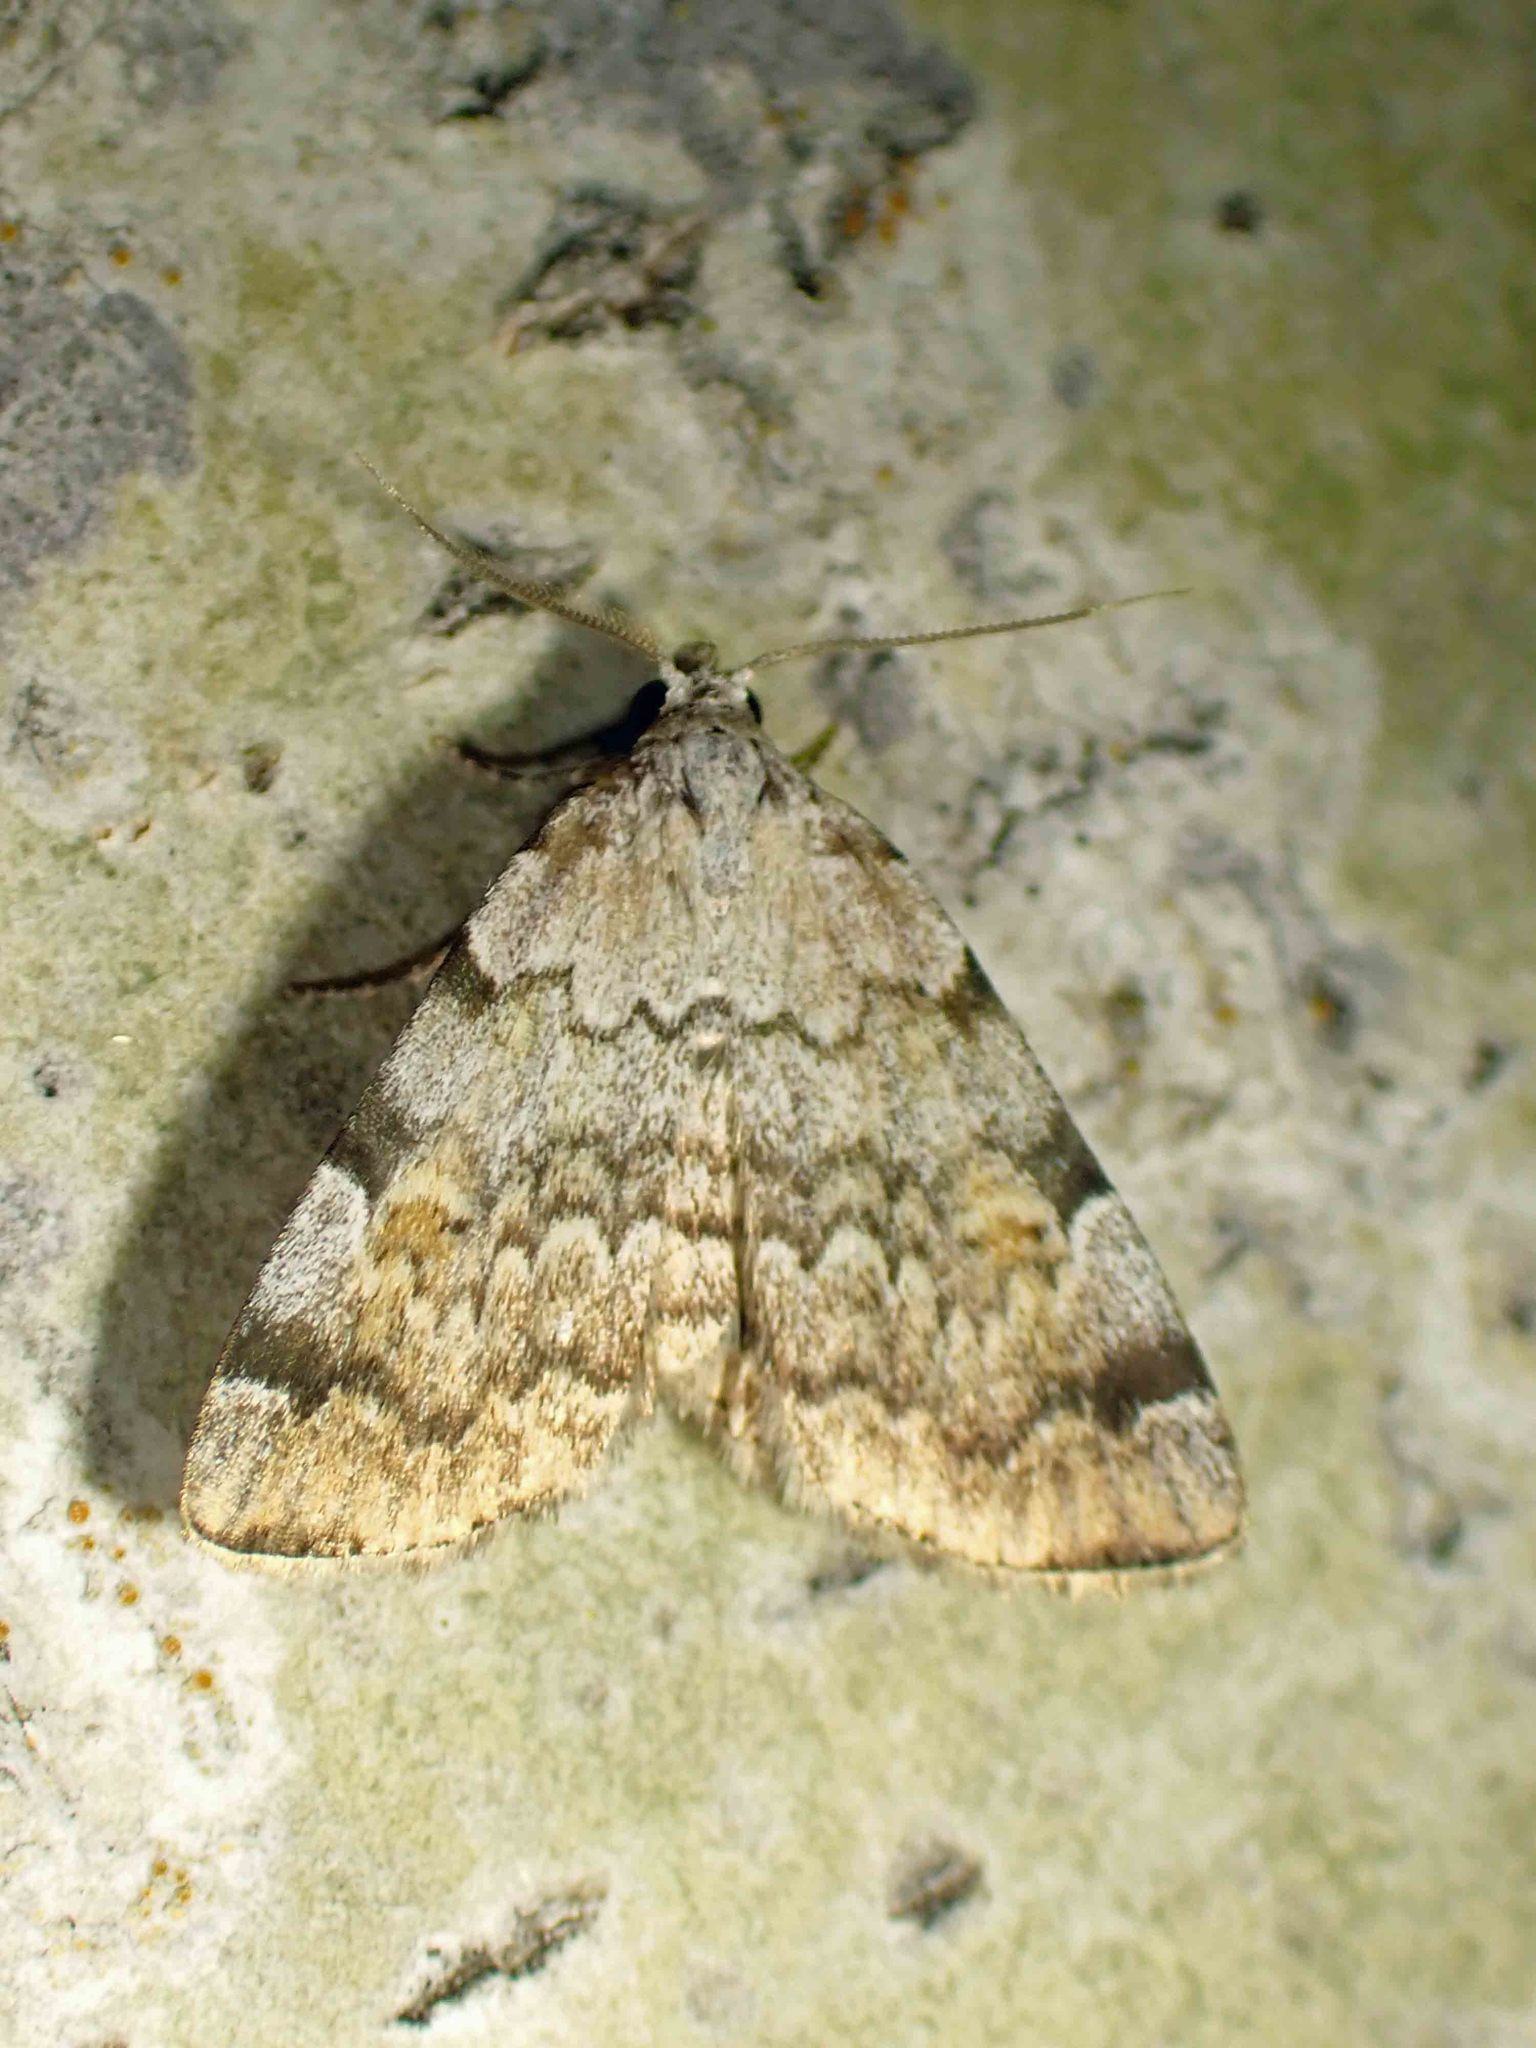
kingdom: Animalia
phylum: Arthropoda
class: Insecta
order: Lepidoptera
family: Erebidae
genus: Idia
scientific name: Idia americalis
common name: American idia moth
